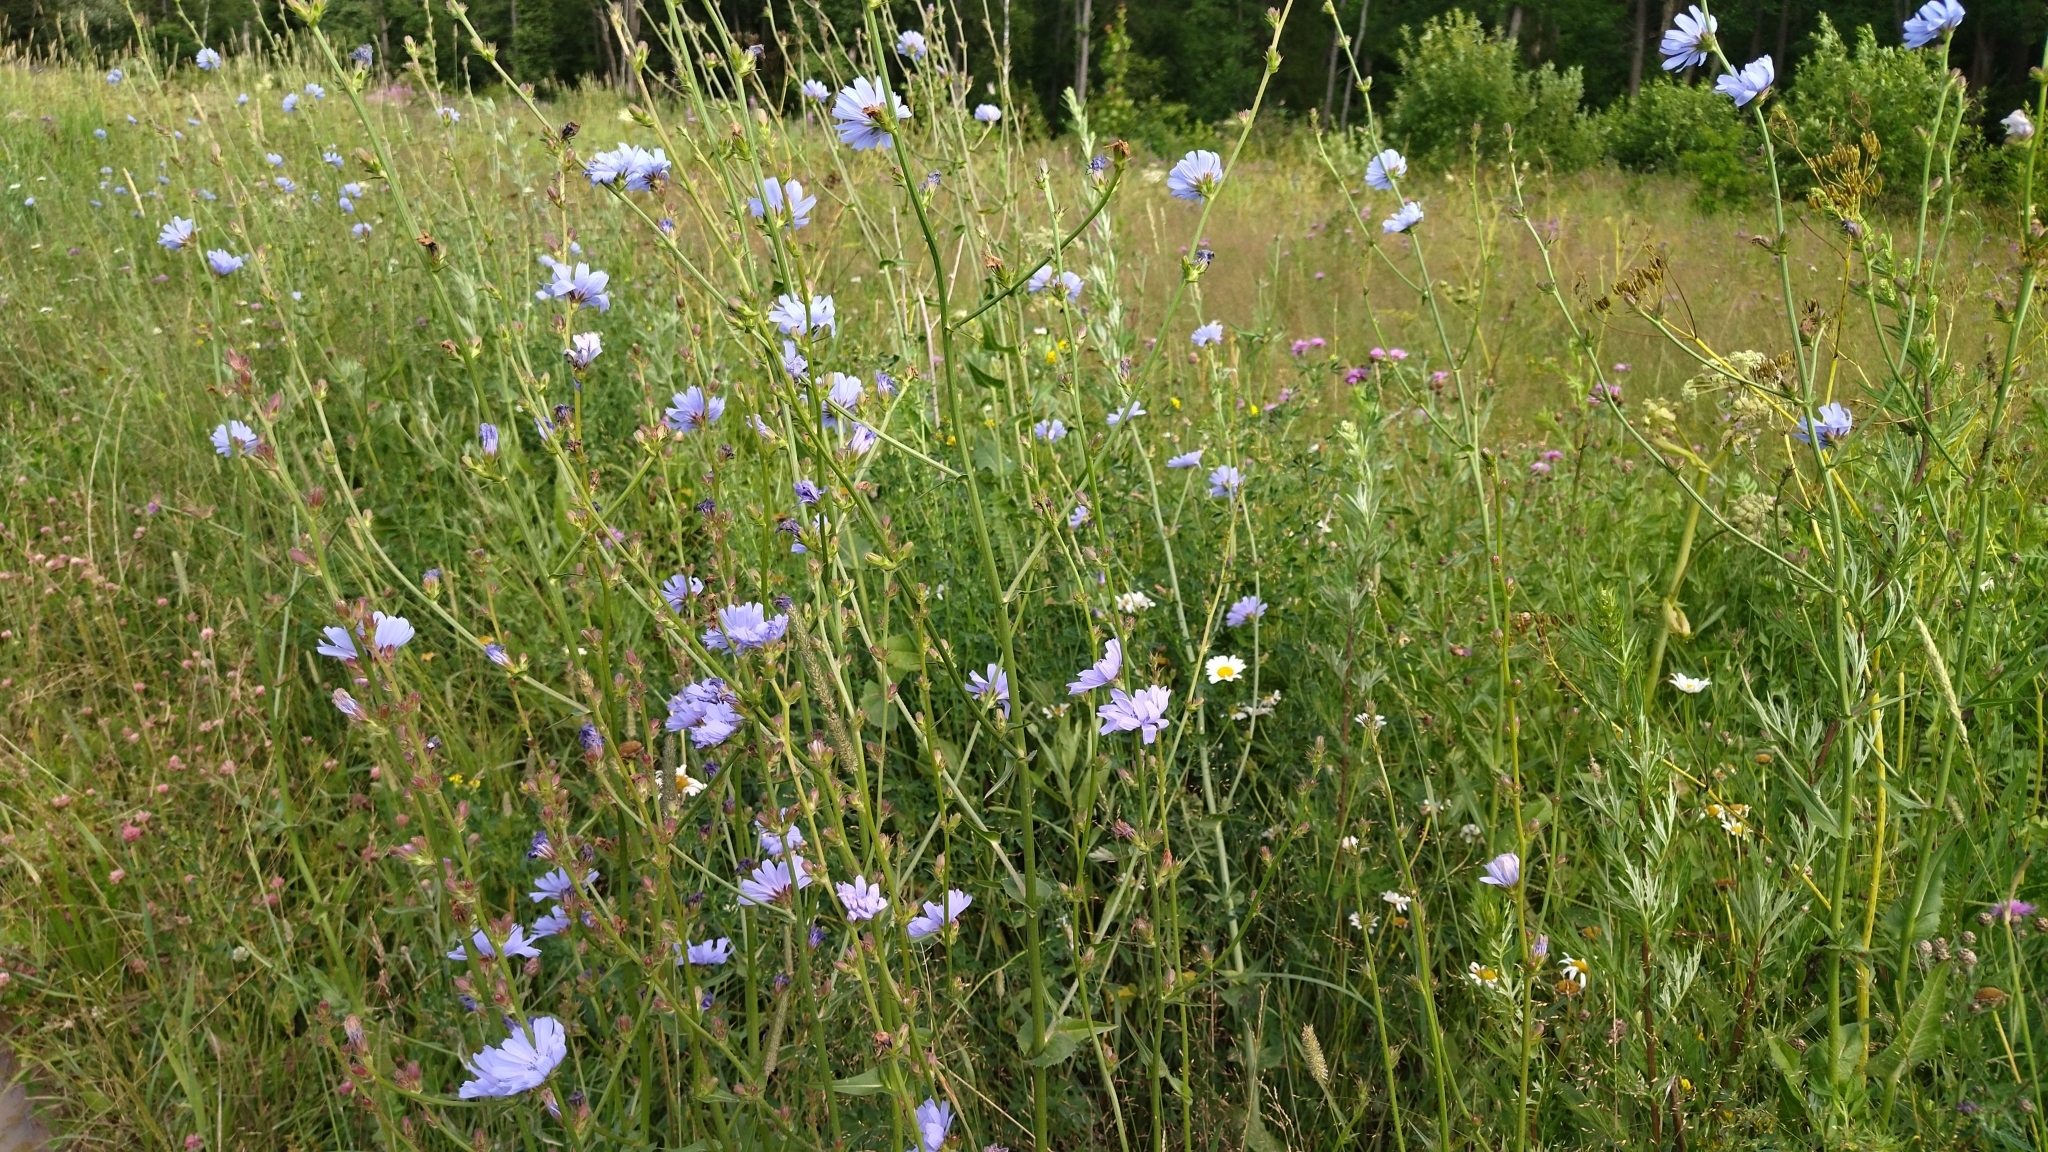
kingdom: Plantae
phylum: Tracheophyta
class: Magnoliopsida
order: Asterales
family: Asteraceae
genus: Cichorium
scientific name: Cichorium intybus
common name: Chicory
